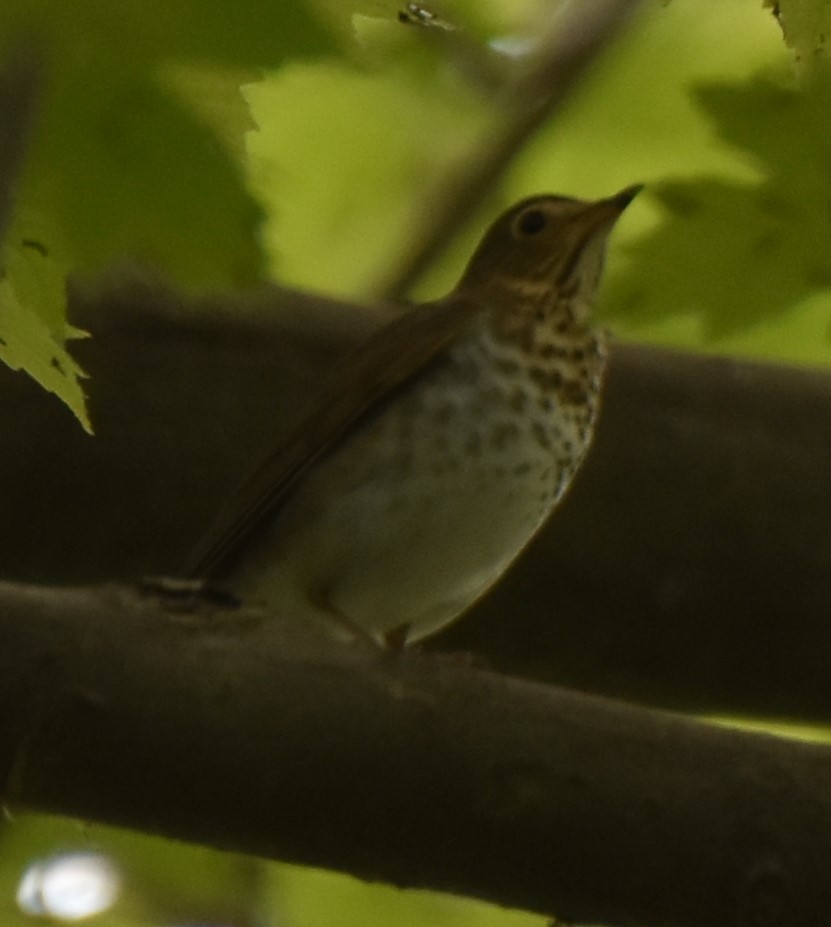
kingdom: Animalia
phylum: Chordata
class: Aves
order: Passeriformes
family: Turdidae
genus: Catharus
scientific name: Catharus ustulatus
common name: Swainson's thrush
